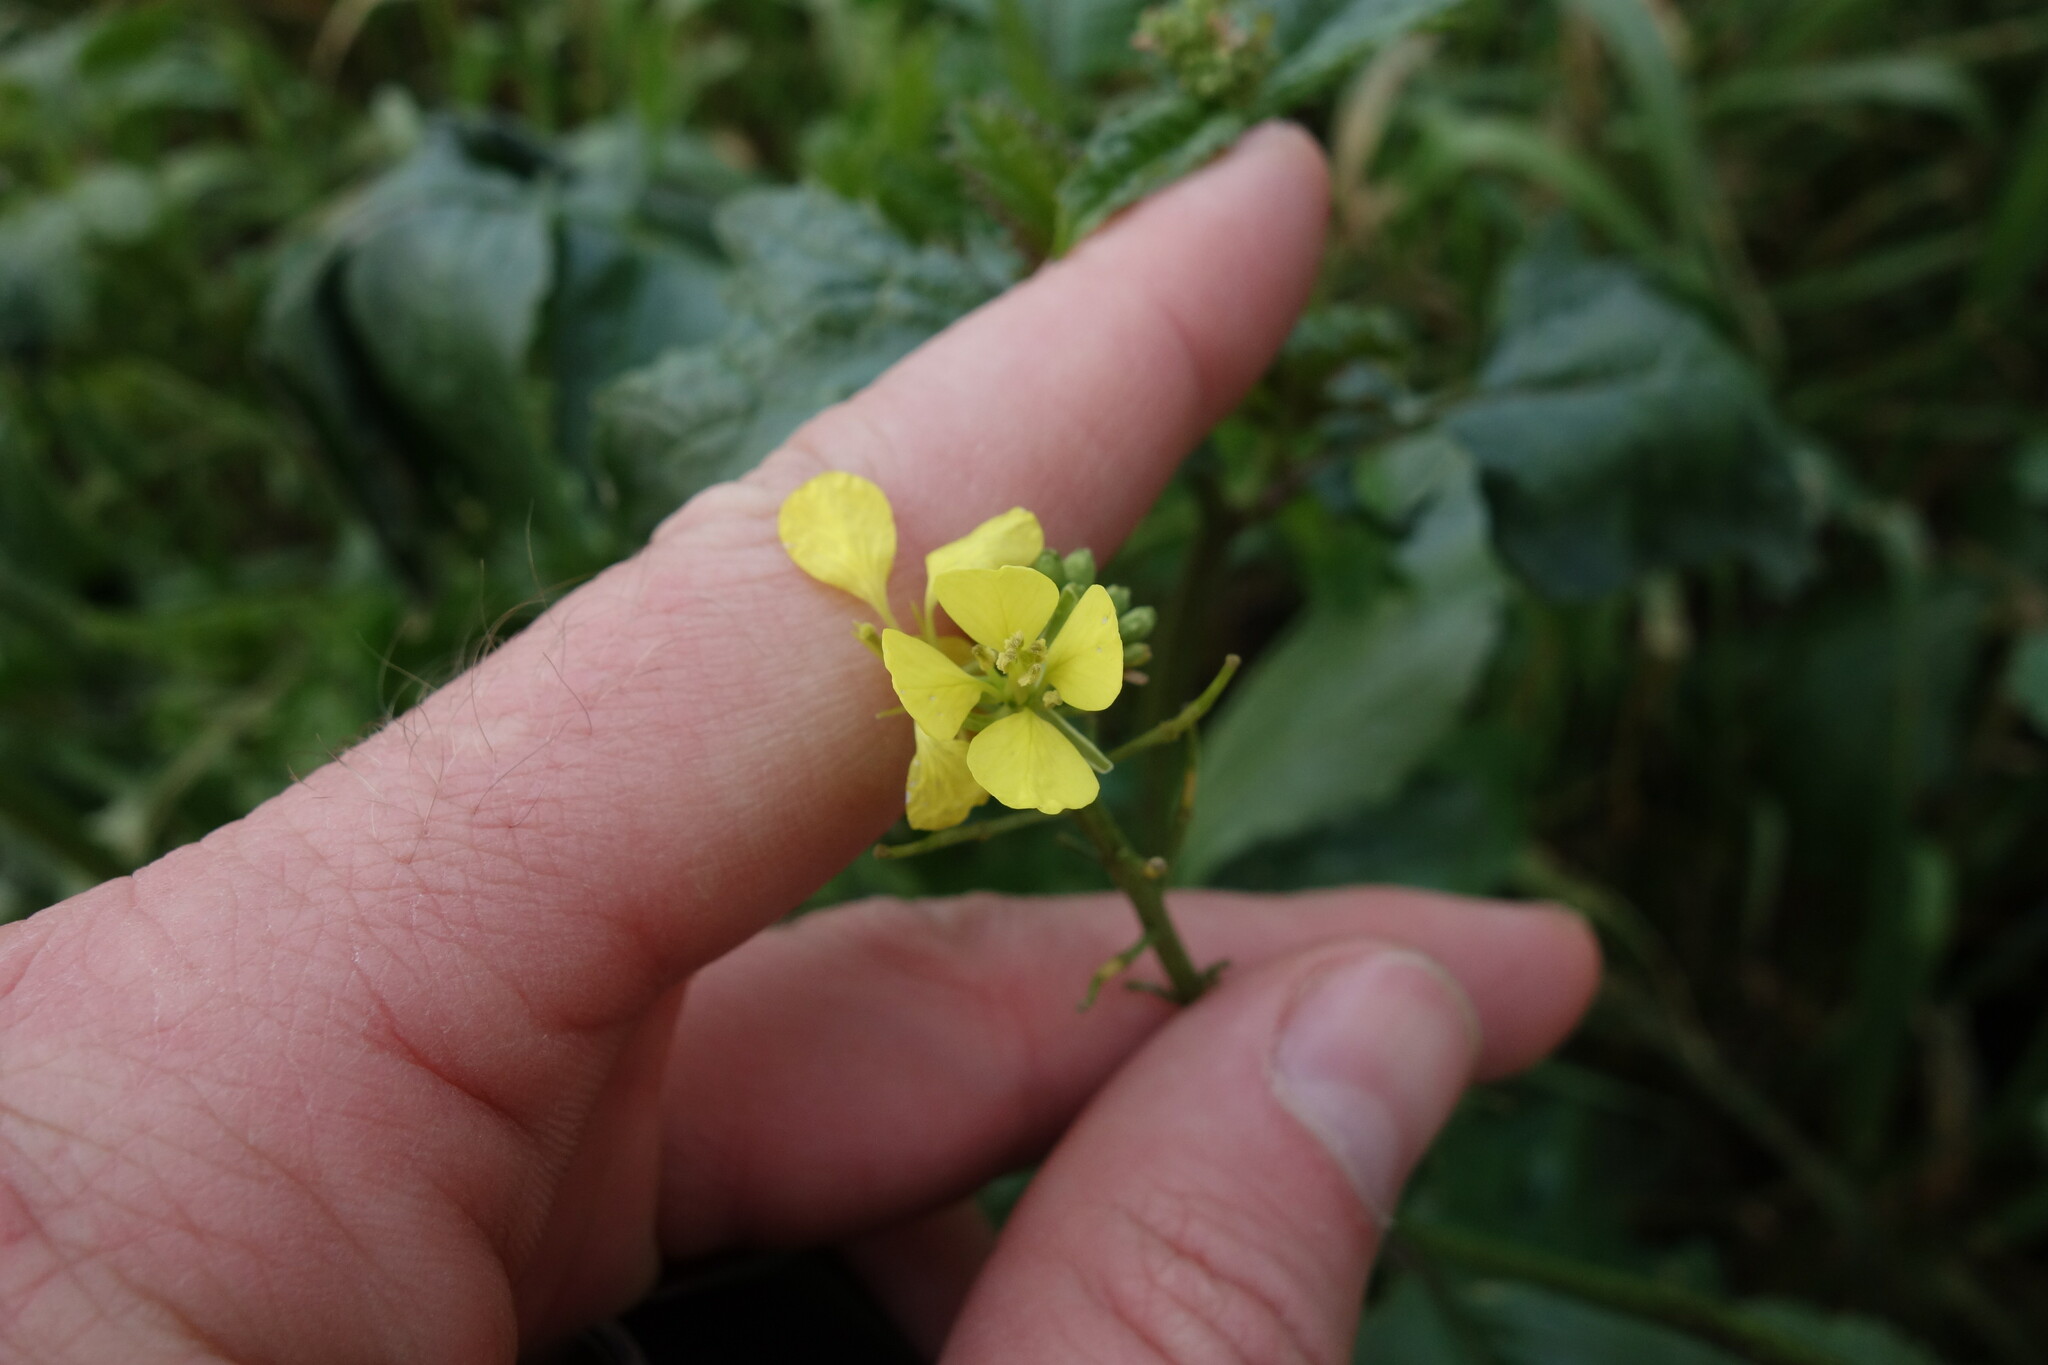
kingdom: Plantae
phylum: Tracheophyta
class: Magnoliopsida
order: Brassicales
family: Brassicaceae
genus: Sinapis
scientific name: Sinapis arvensis
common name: Charlock
